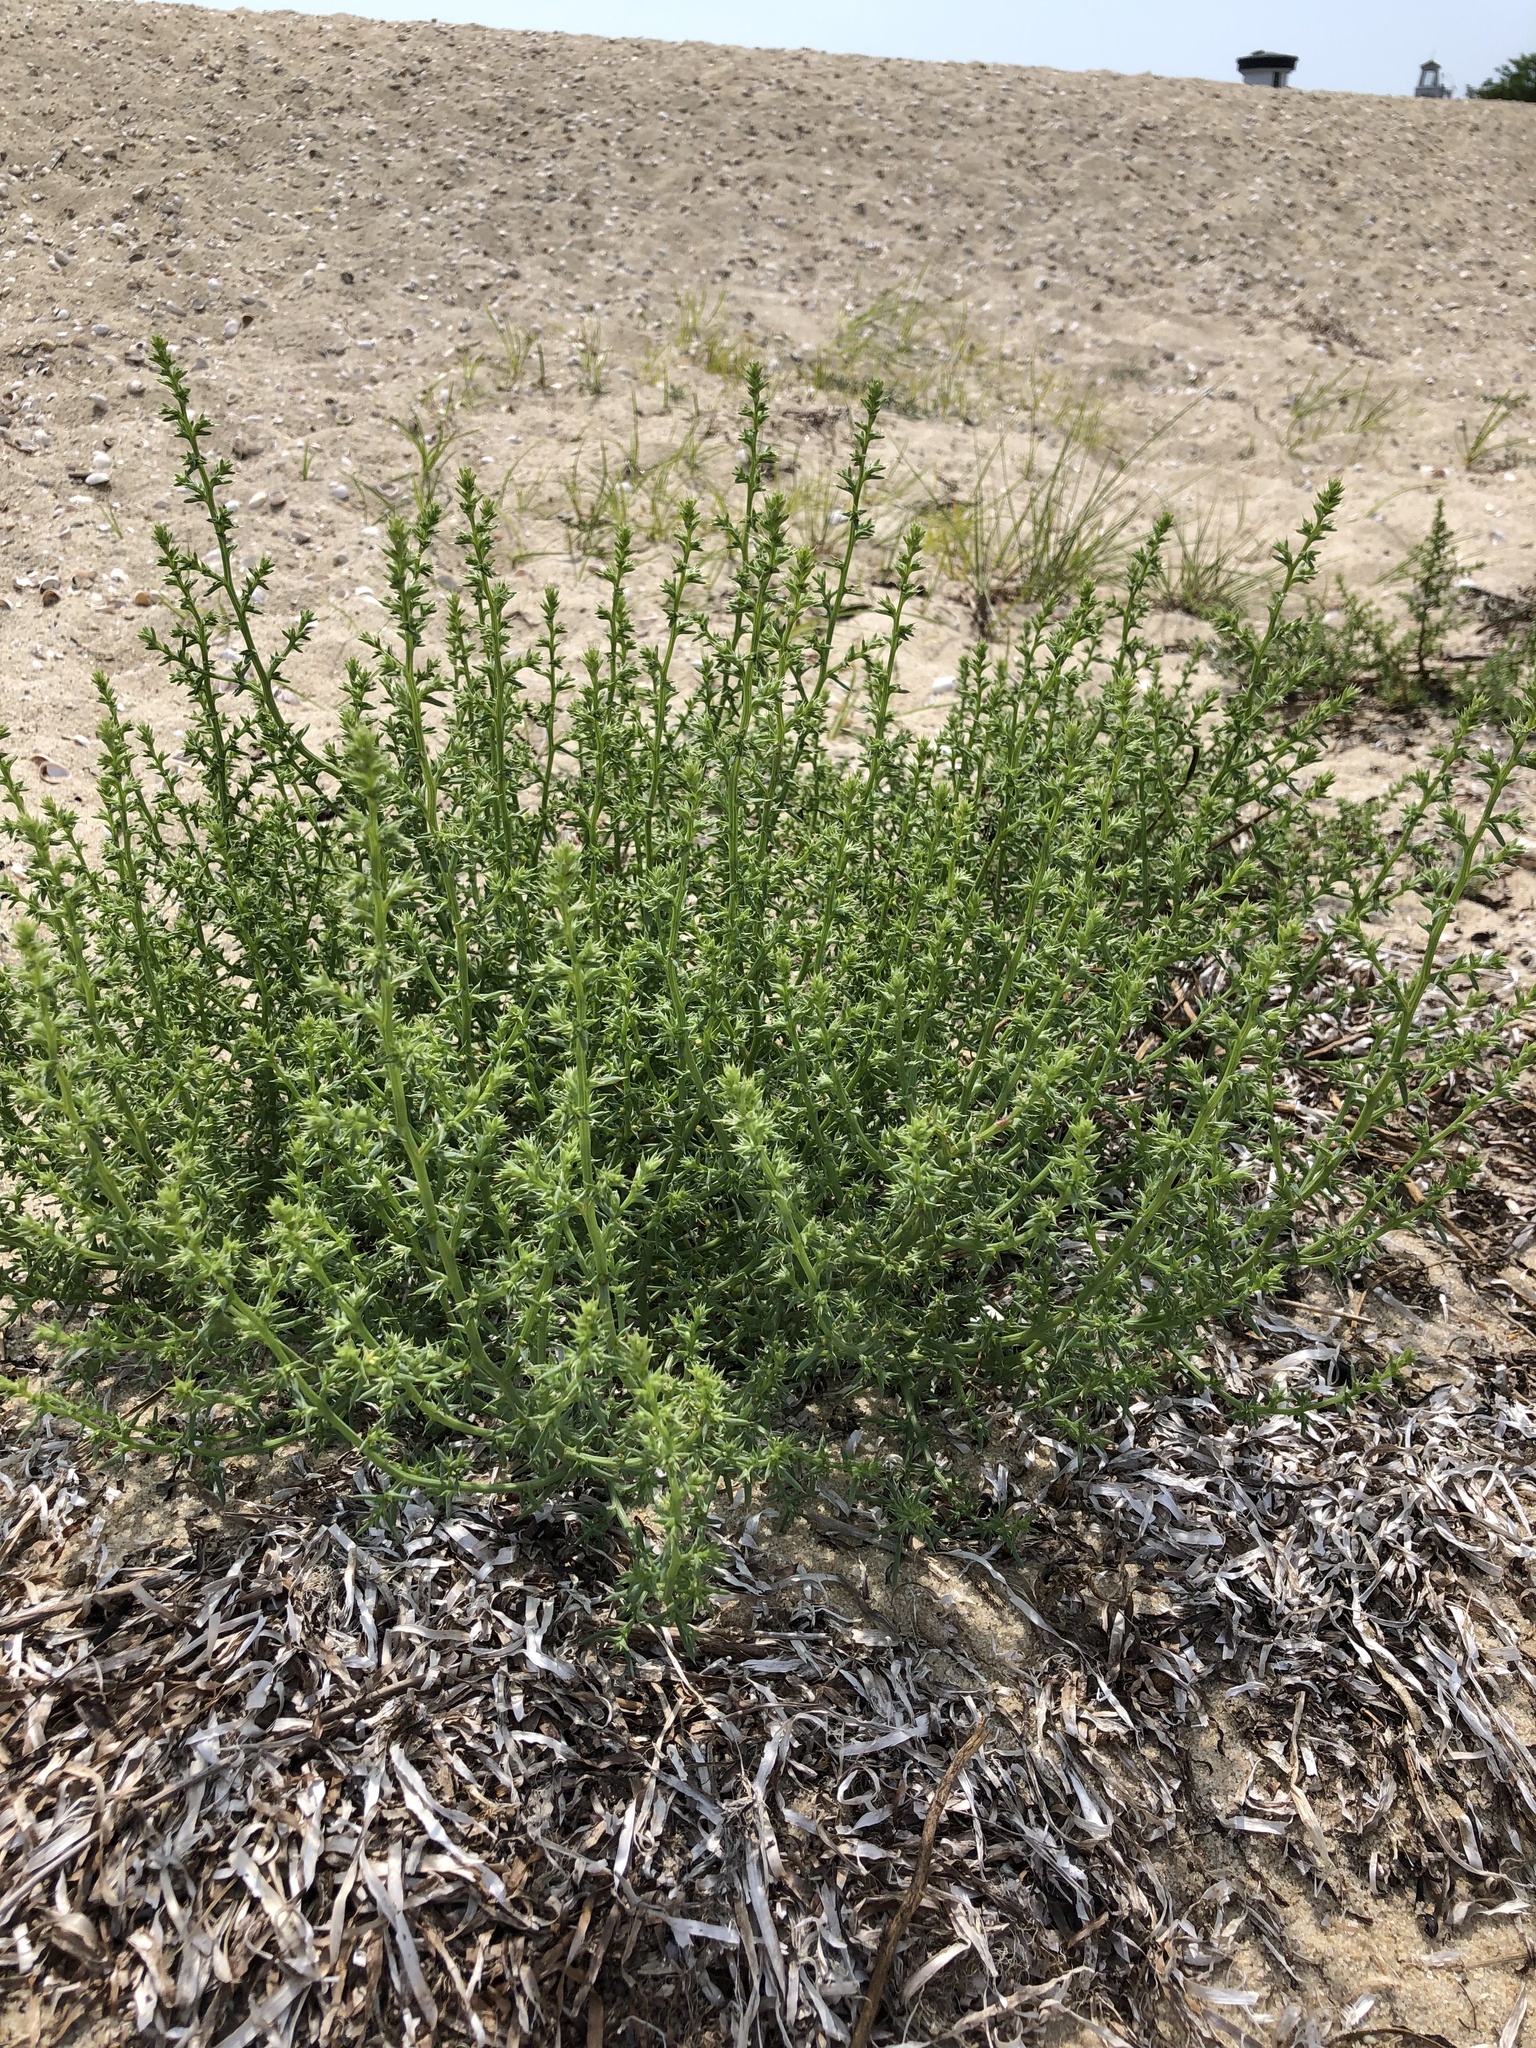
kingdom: Plantae
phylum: Tracheophyta
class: Magnoliopsida
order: Caryophyllales
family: Amaranthaceae
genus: Salsola
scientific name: Salsola kali
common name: Saltwort
